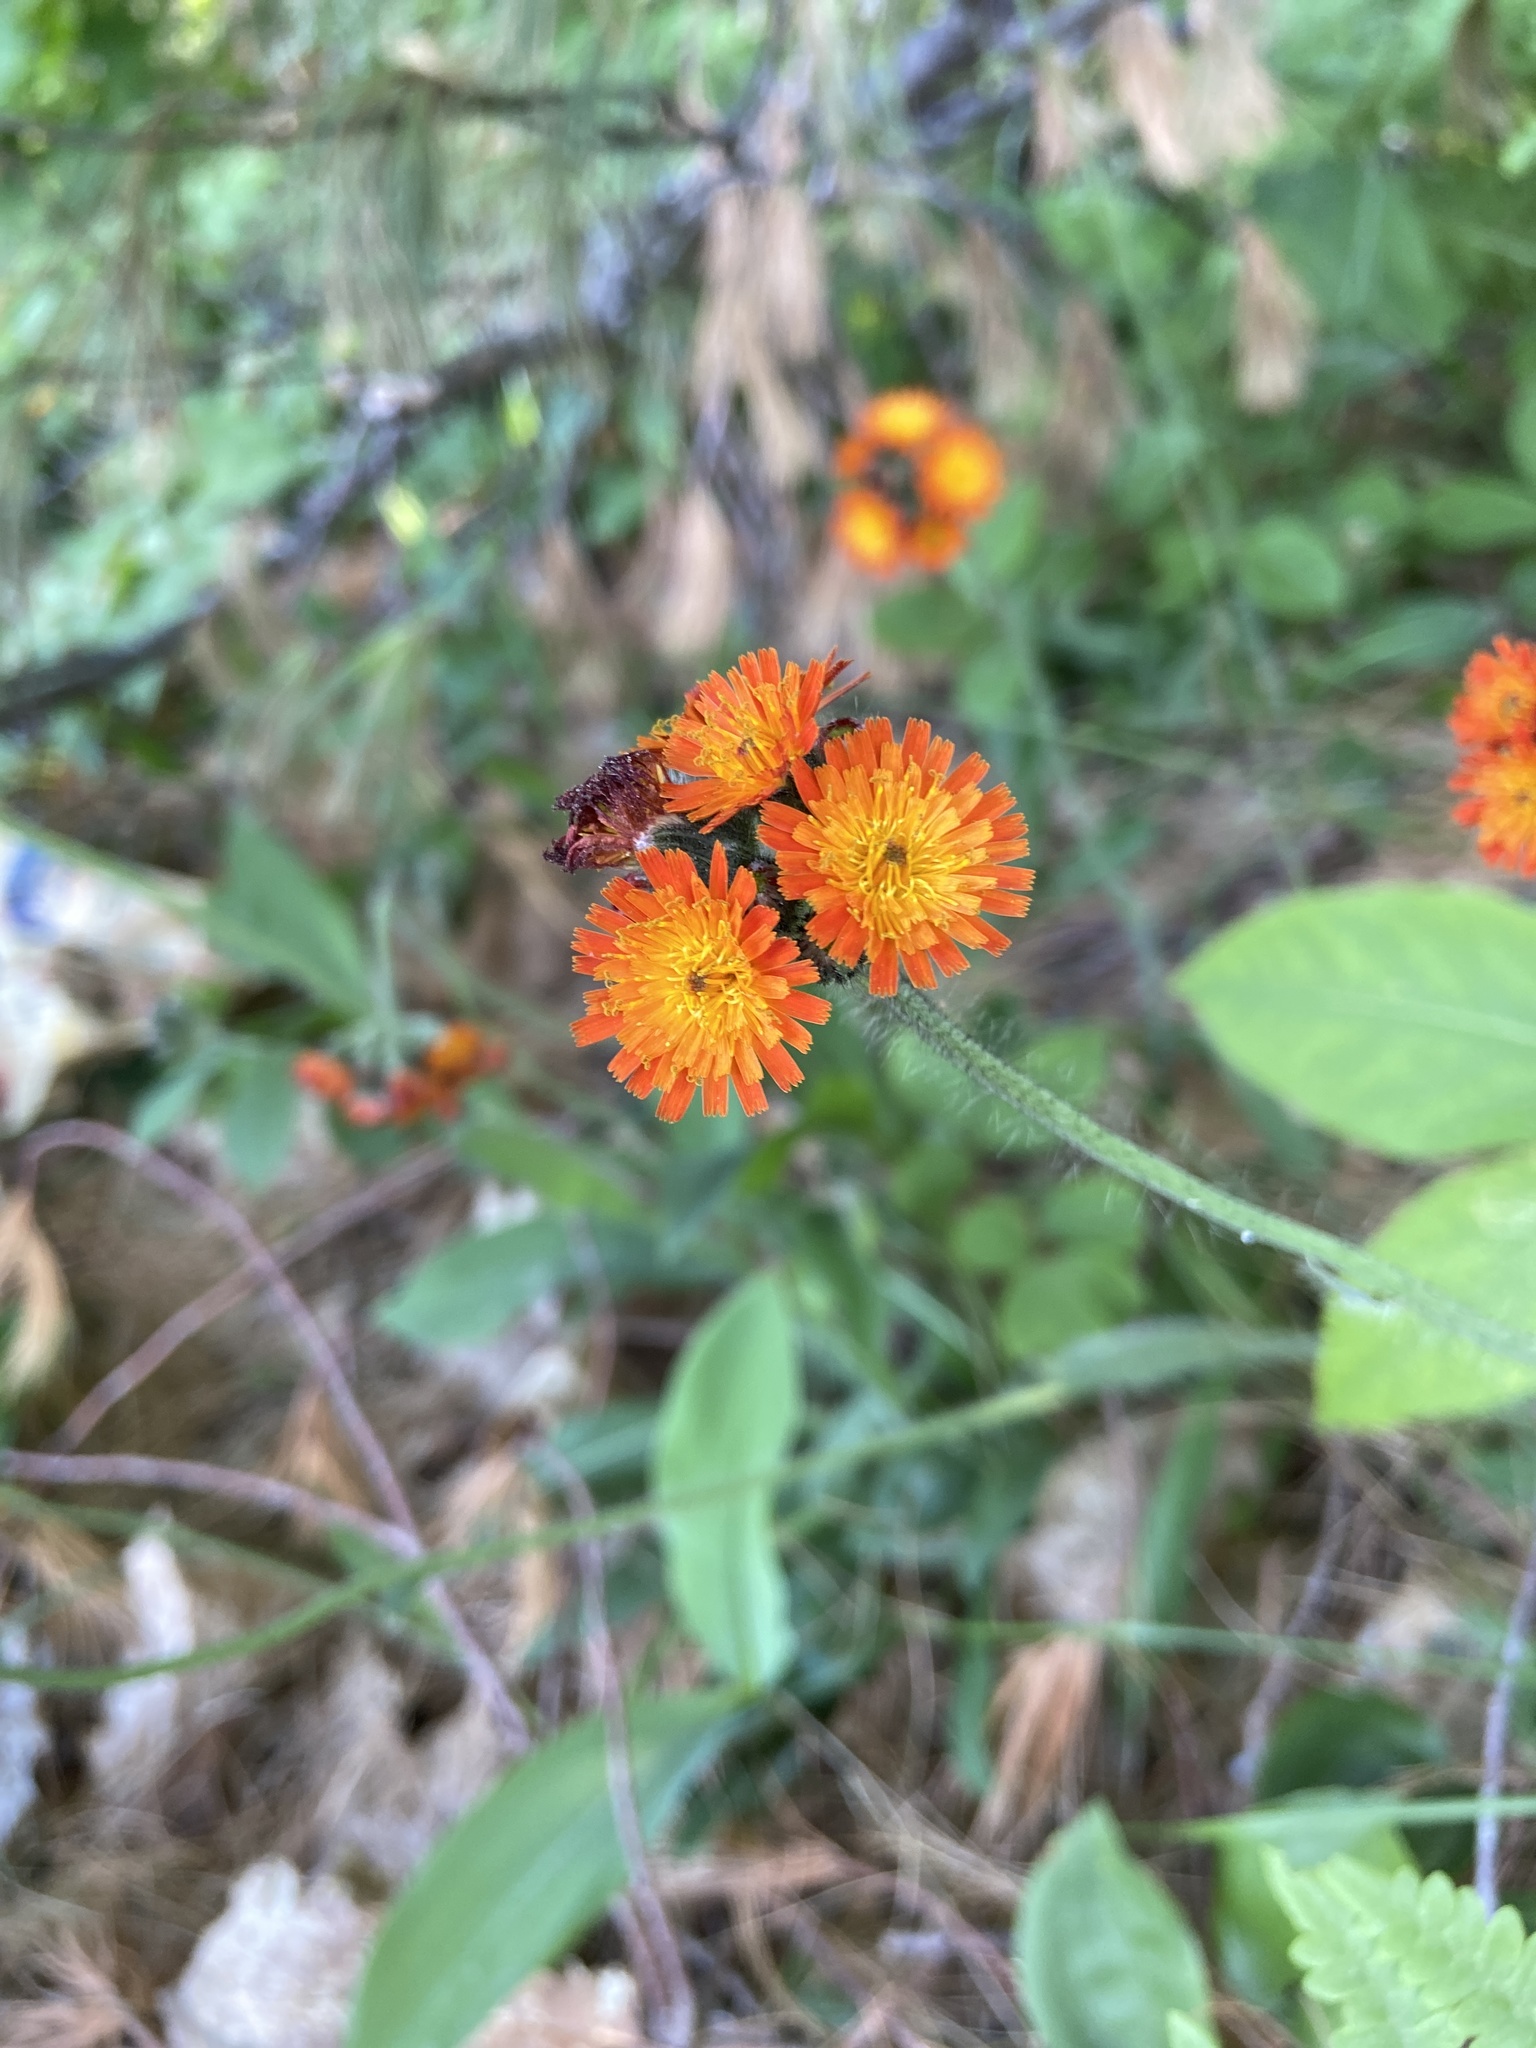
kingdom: Plantae
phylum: Tracheophyta
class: Magnoliopsida
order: Asterales
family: Asteraceae
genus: Pilosella
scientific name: Pilosella aurantiaca
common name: Fox-and-cubs
